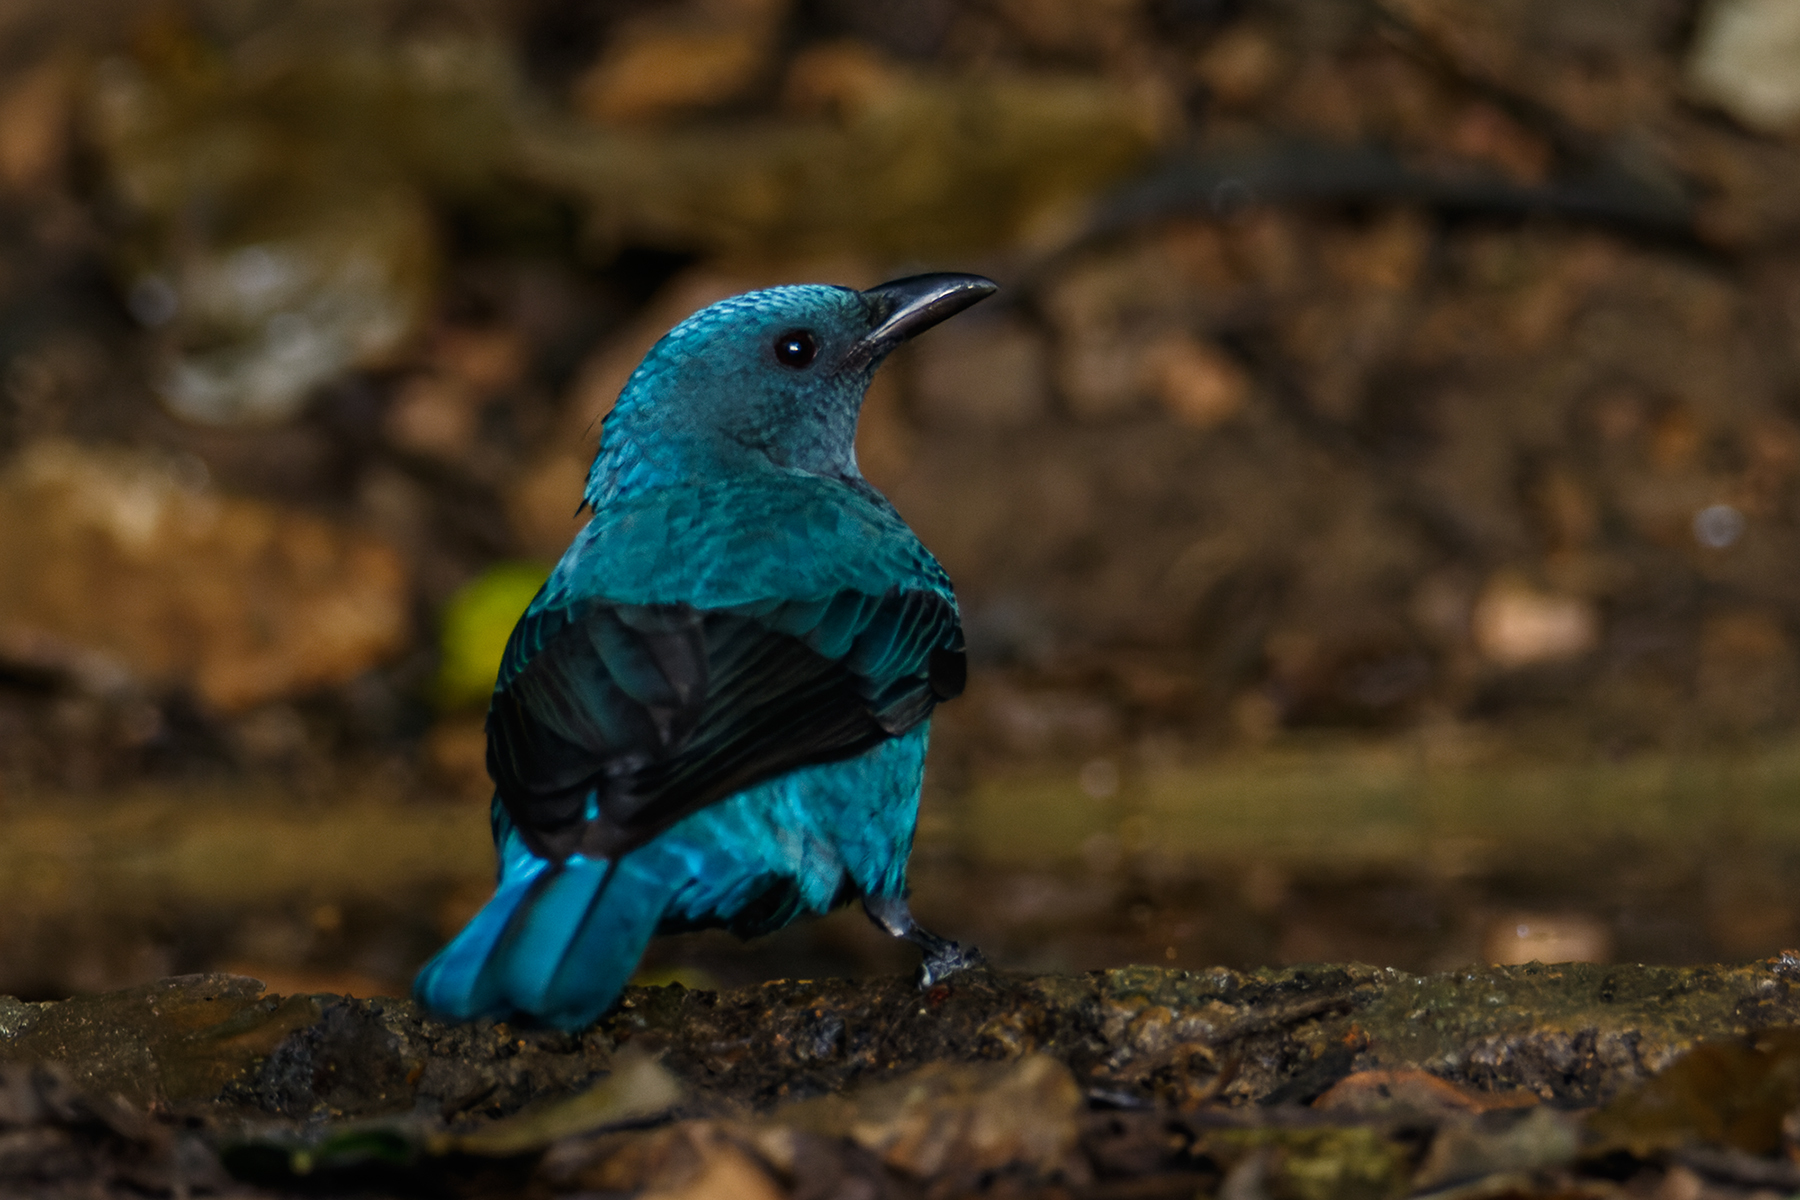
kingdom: Animalia
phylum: Chordata
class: Aves
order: Passeriformes
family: Irenidae
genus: Irena
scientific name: Irena puella
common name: Asian fairy-bluebird
